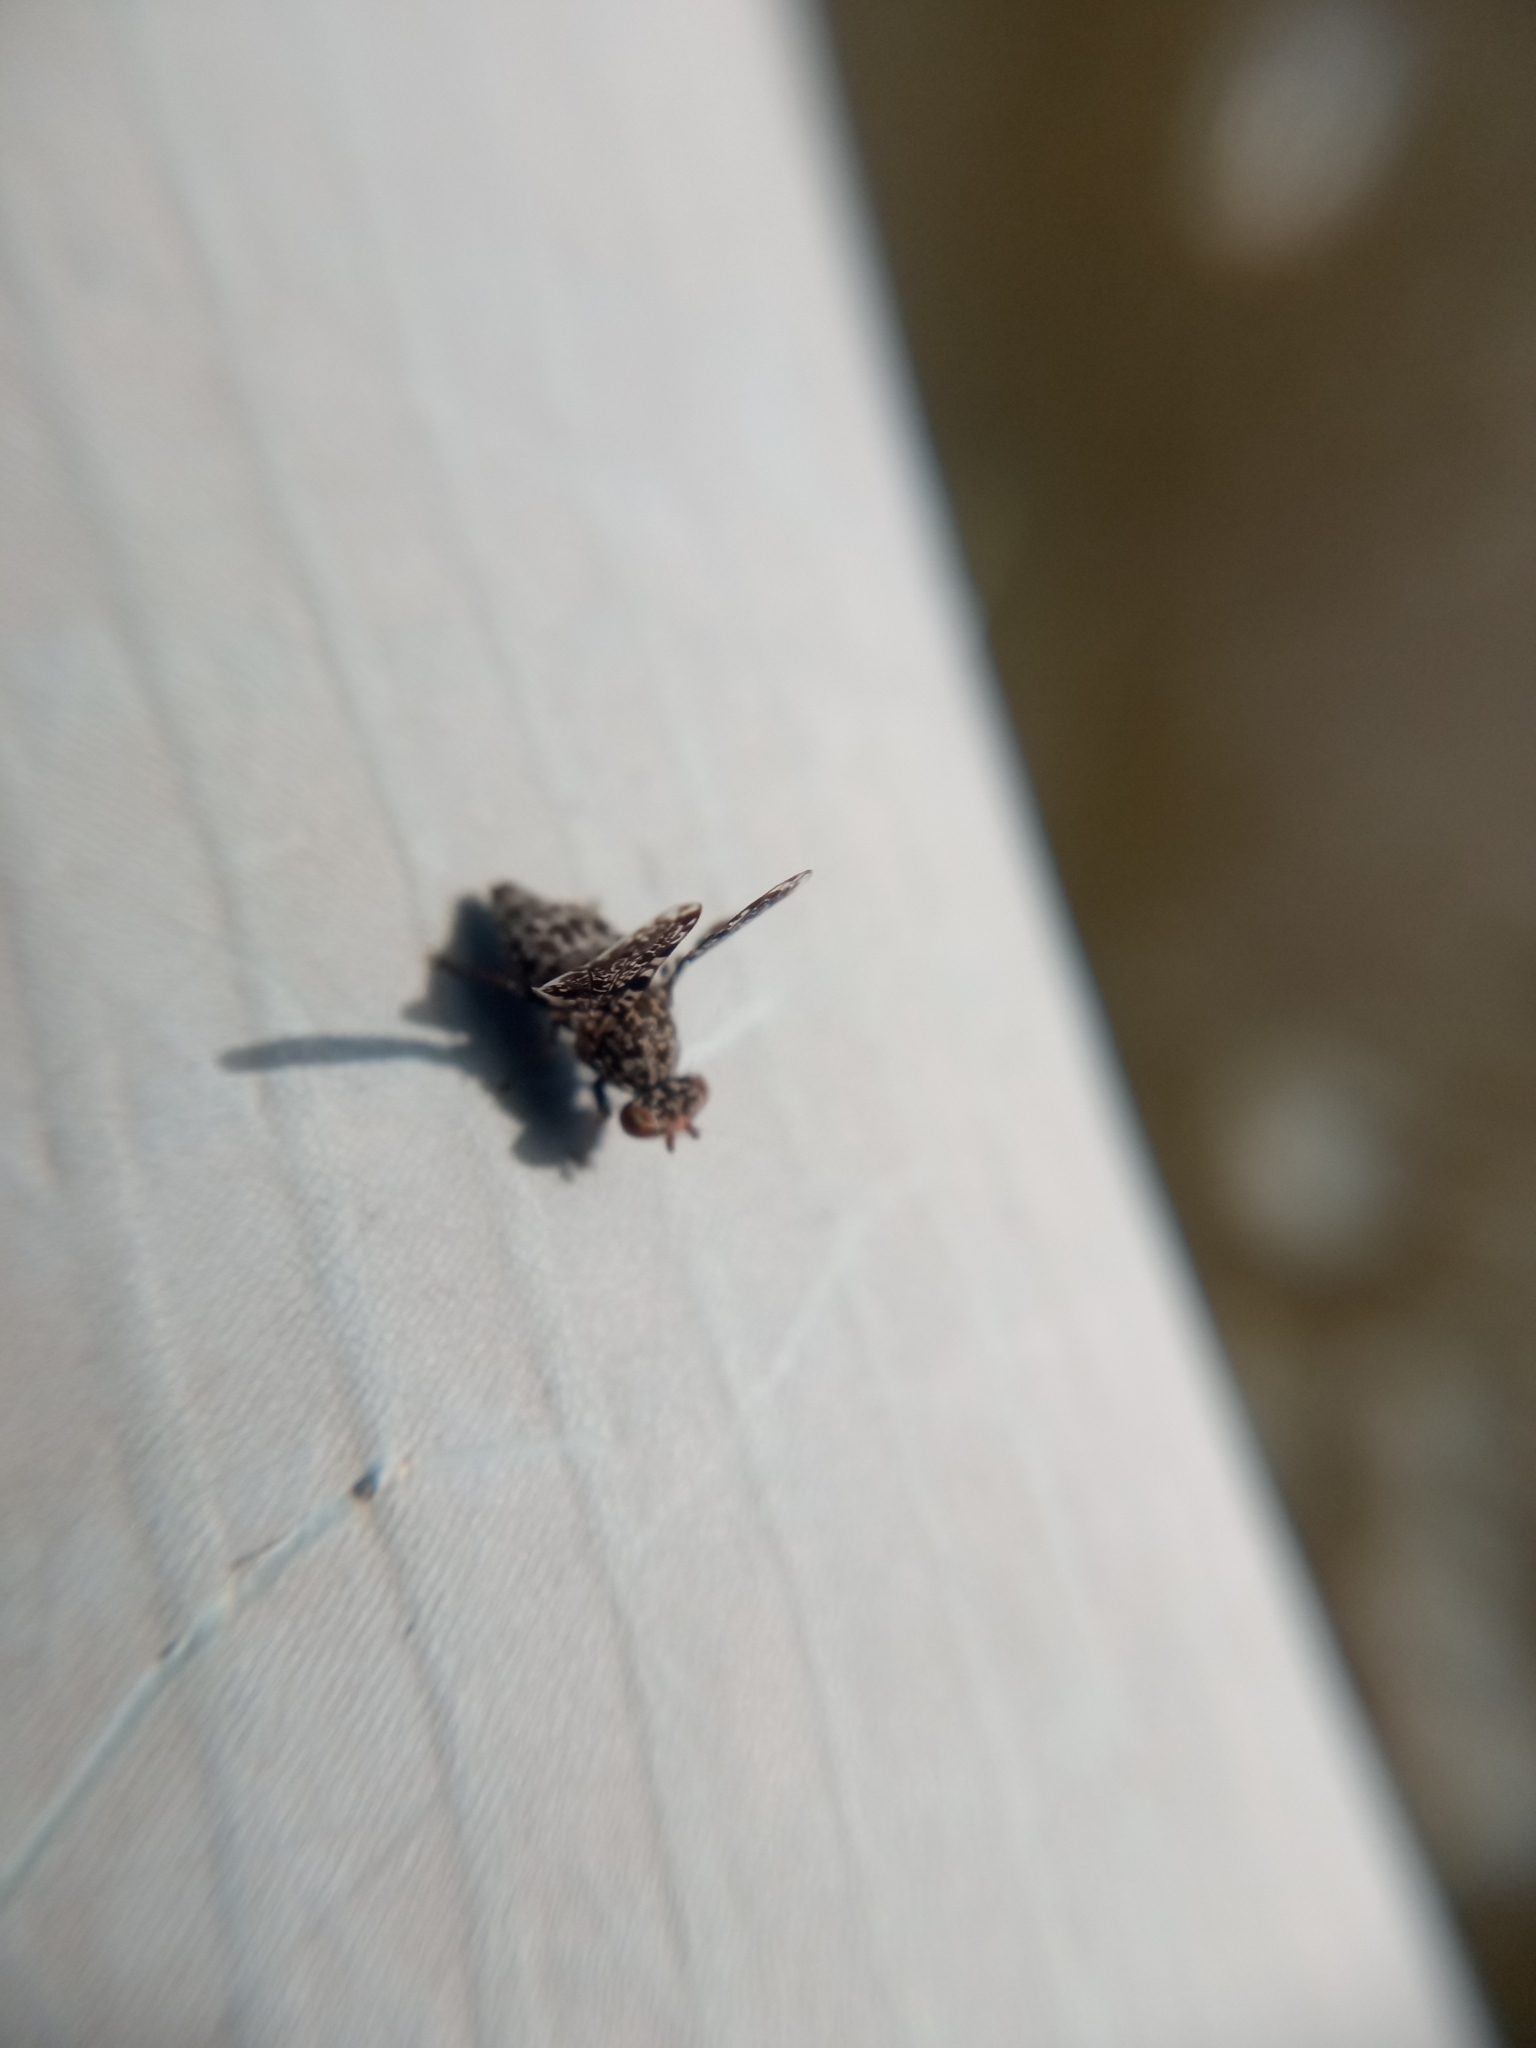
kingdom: Animalia
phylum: Arthropoda
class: Insecta
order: Diptera
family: Ulidiidae
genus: Callopistromyia
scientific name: Callopistromyia annulipes
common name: Peacock fly
